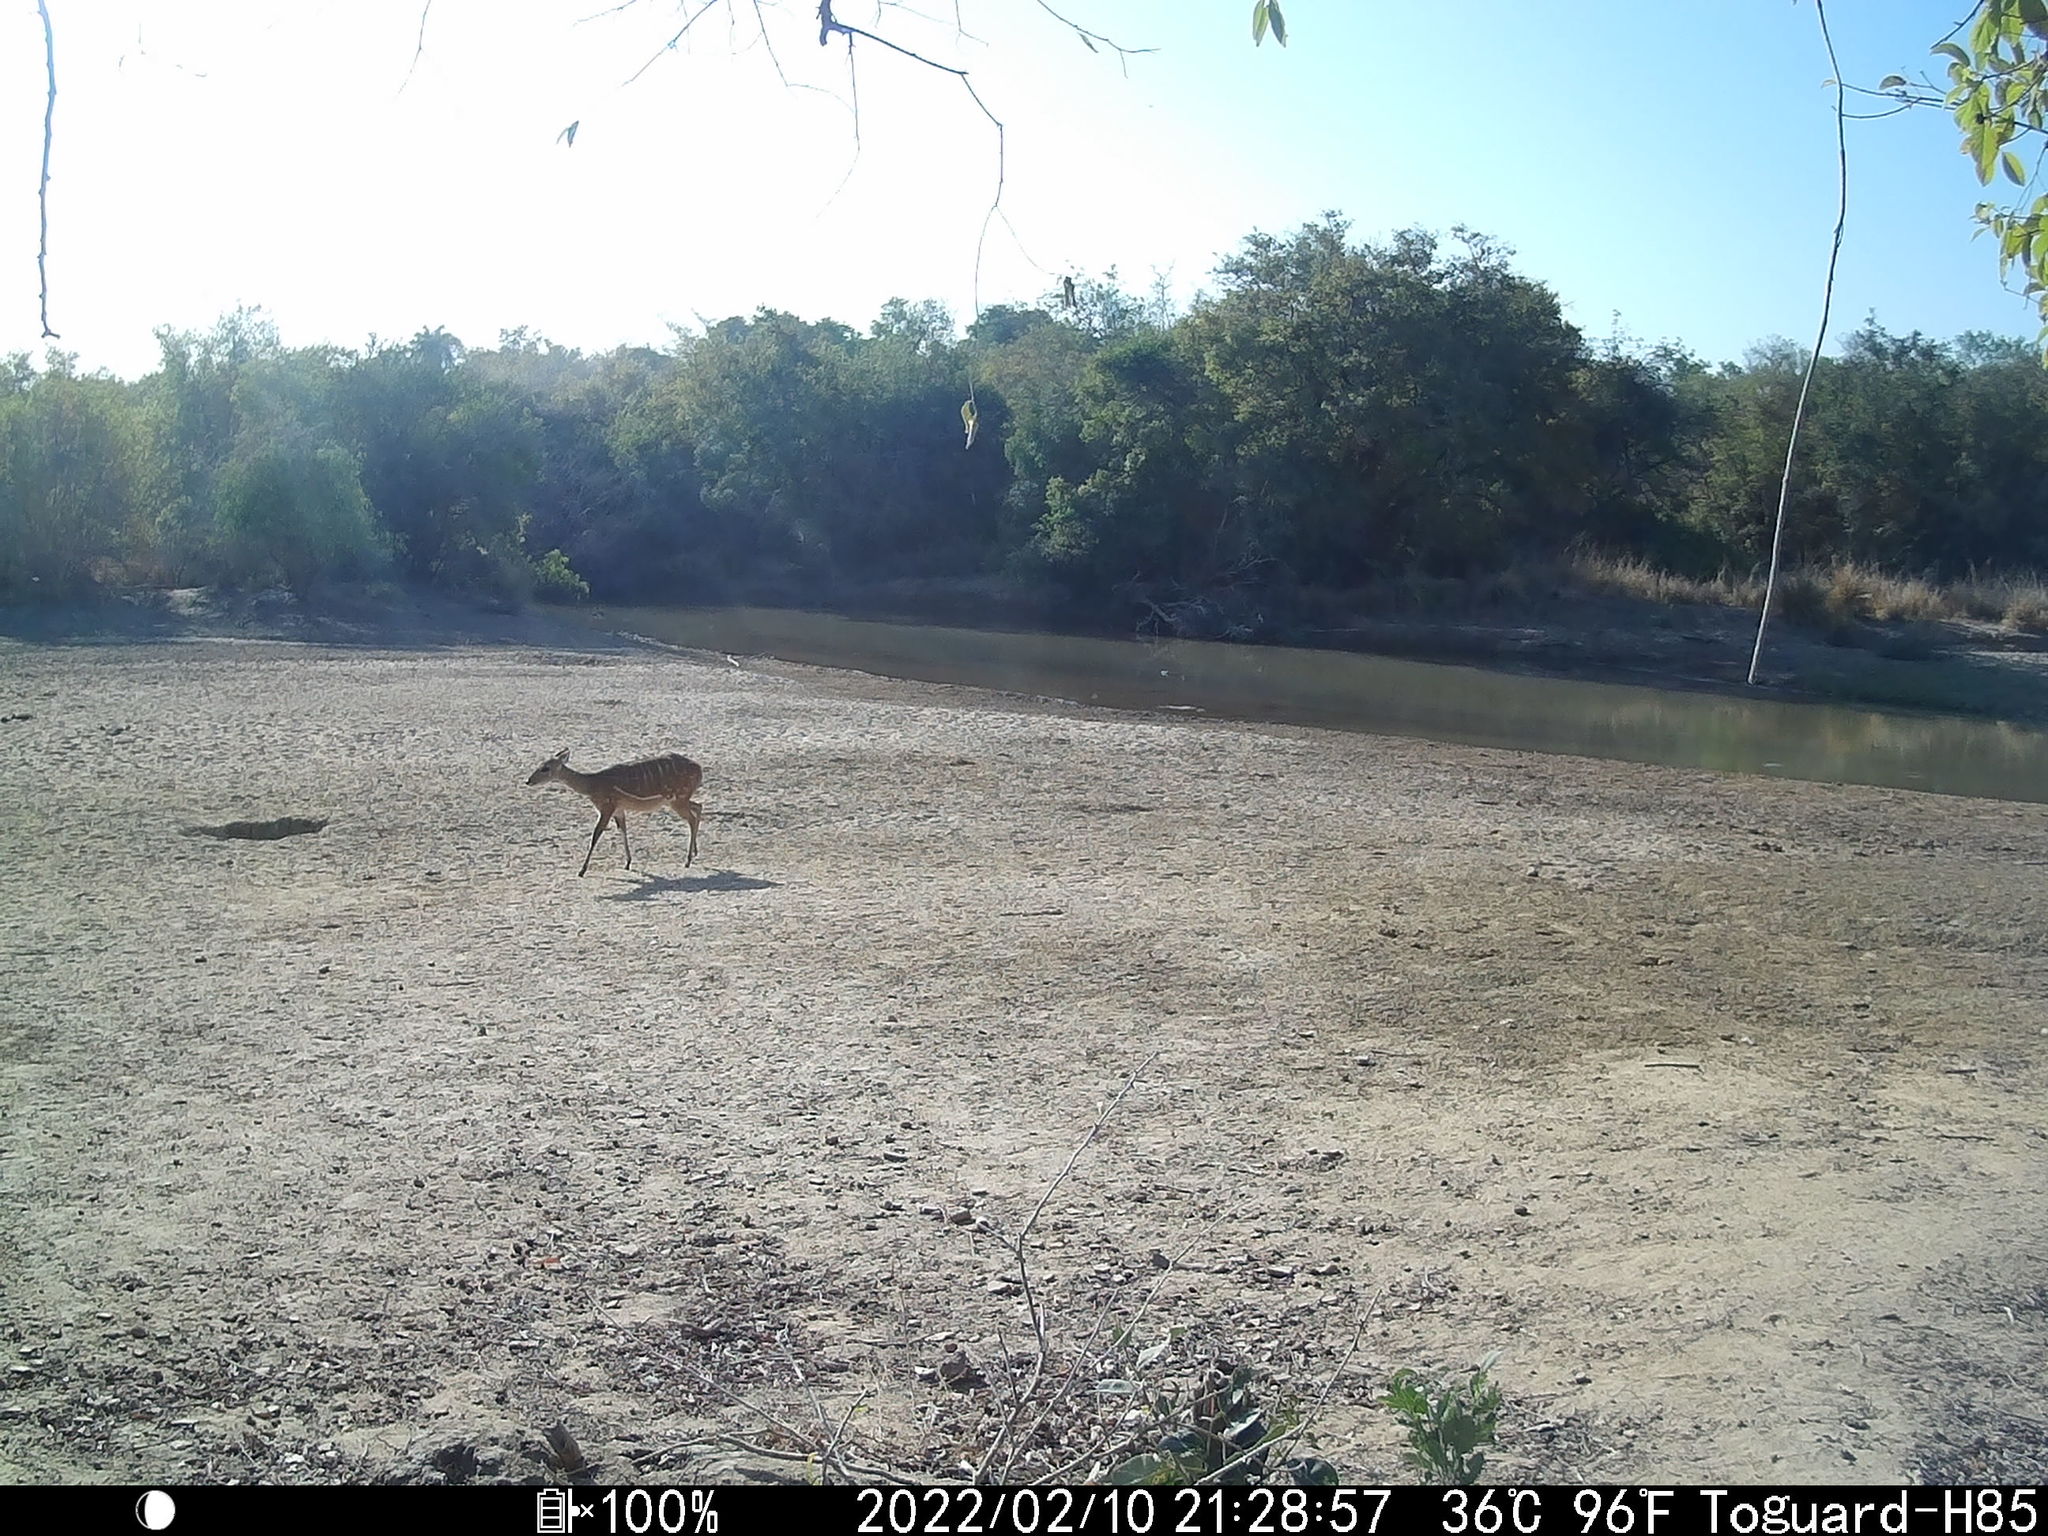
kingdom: Animalia
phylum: Chordata
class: Mammalia
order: Artiodactyla
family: Bovidae
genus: Tragelaphus
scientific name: Tragelaphus scriptus
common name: Bushbuck
